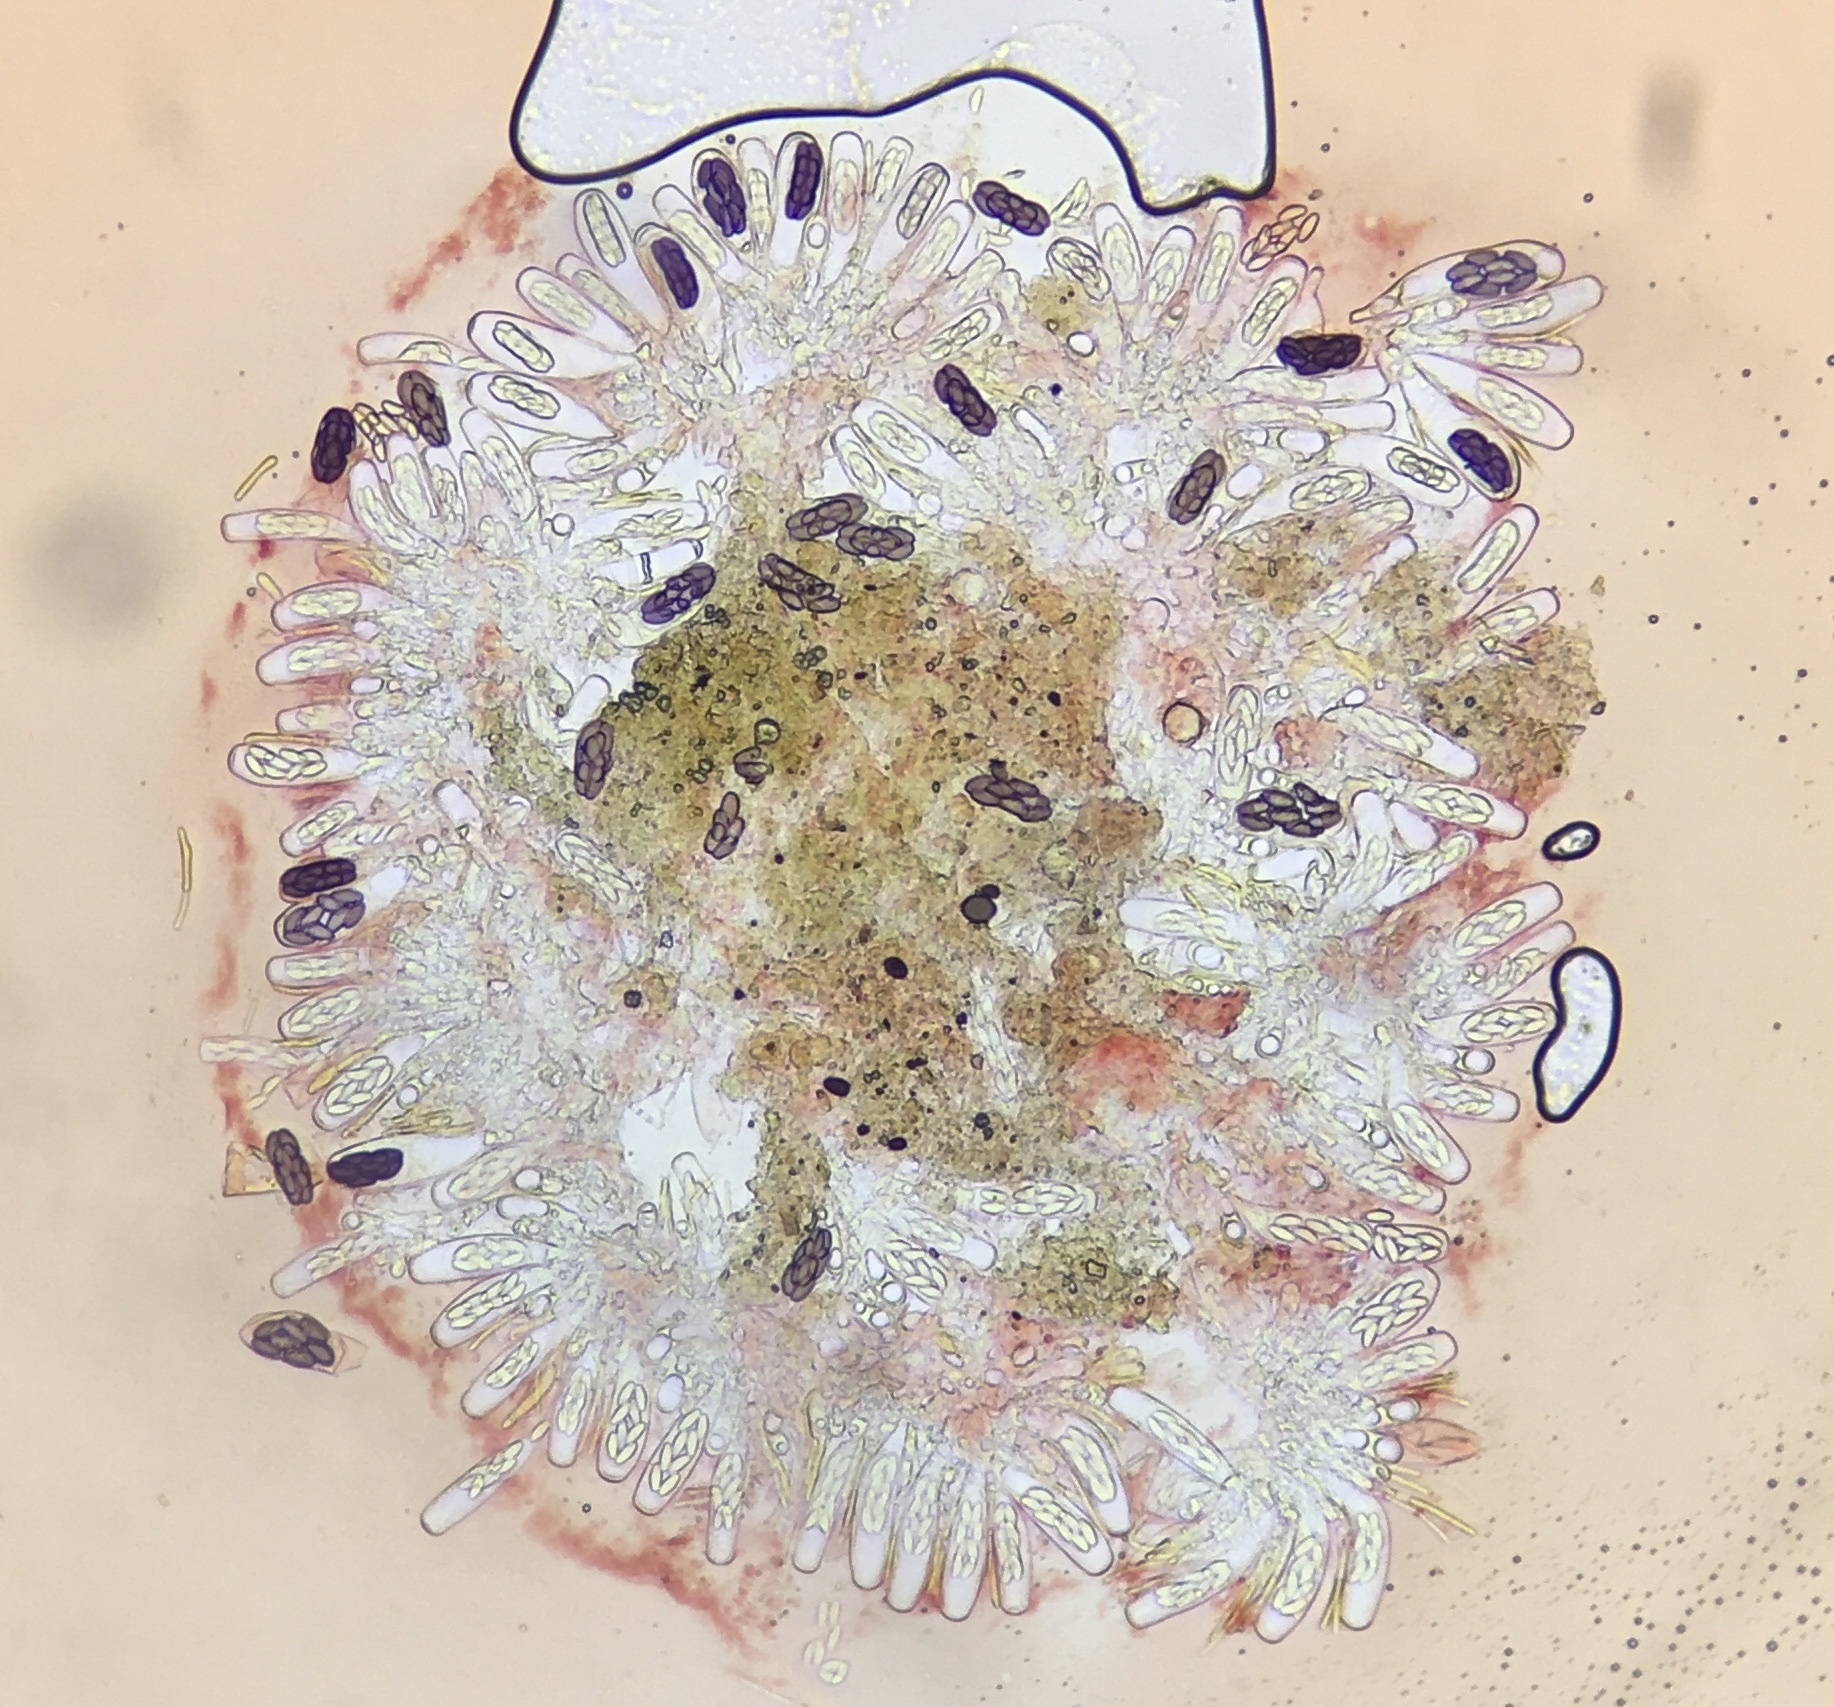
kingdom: Fungi
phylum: Ascomycota
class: Pezizomycetes
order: Pezizales
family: Ascobolaceae
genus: Saccobolus
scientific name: Saccobolus minimoides
